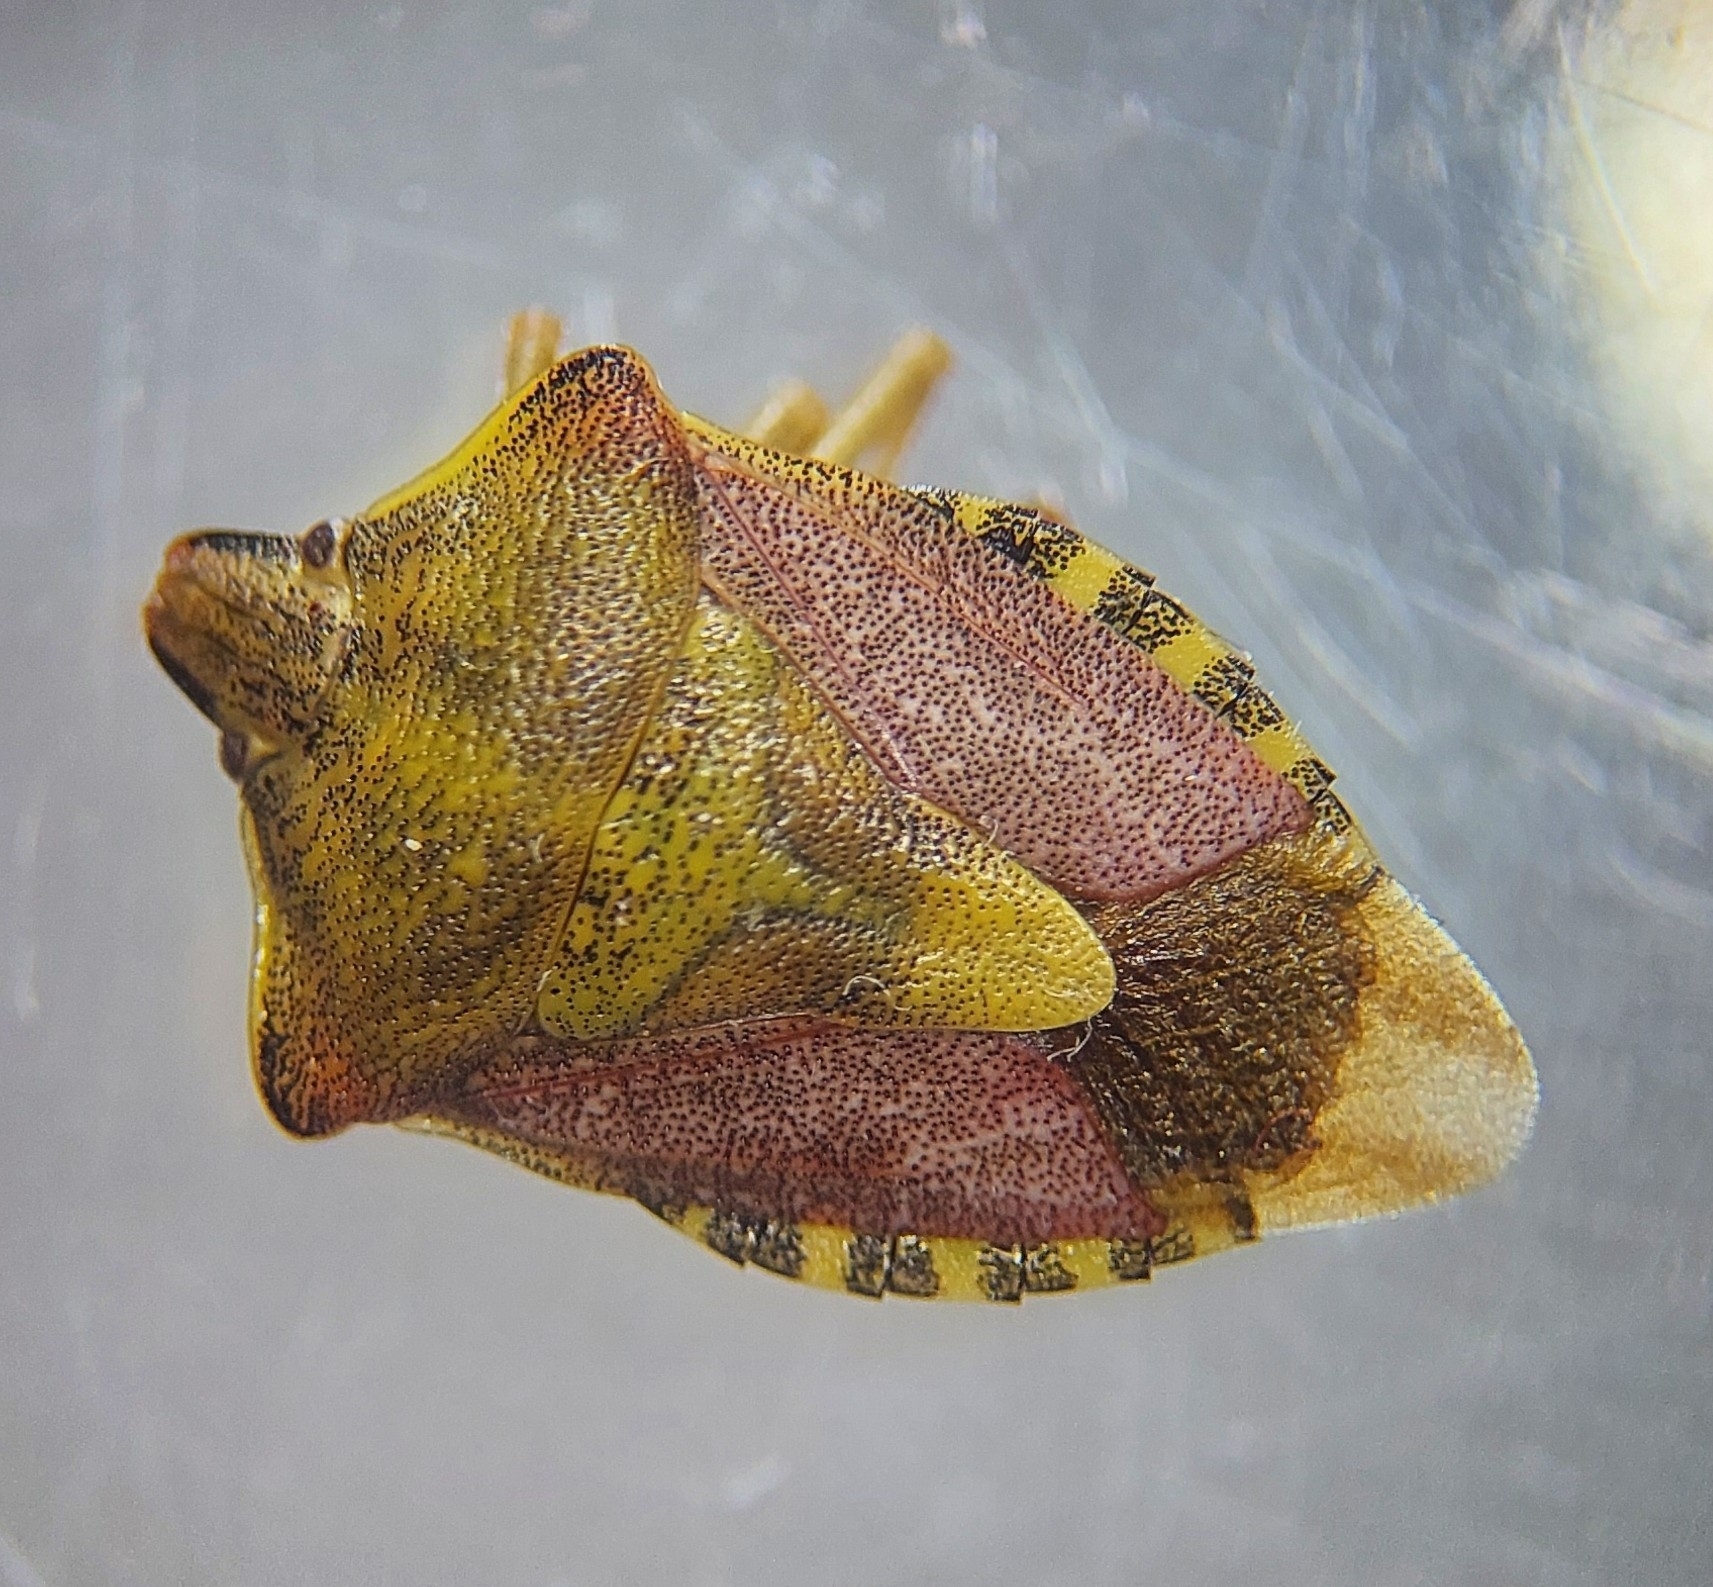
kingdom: Animalia
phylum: Arthropoda
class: Insecta
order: Hemiptera
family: Pentatomidae
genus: Carpocoris
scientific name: Carpocoris purpureipennis
